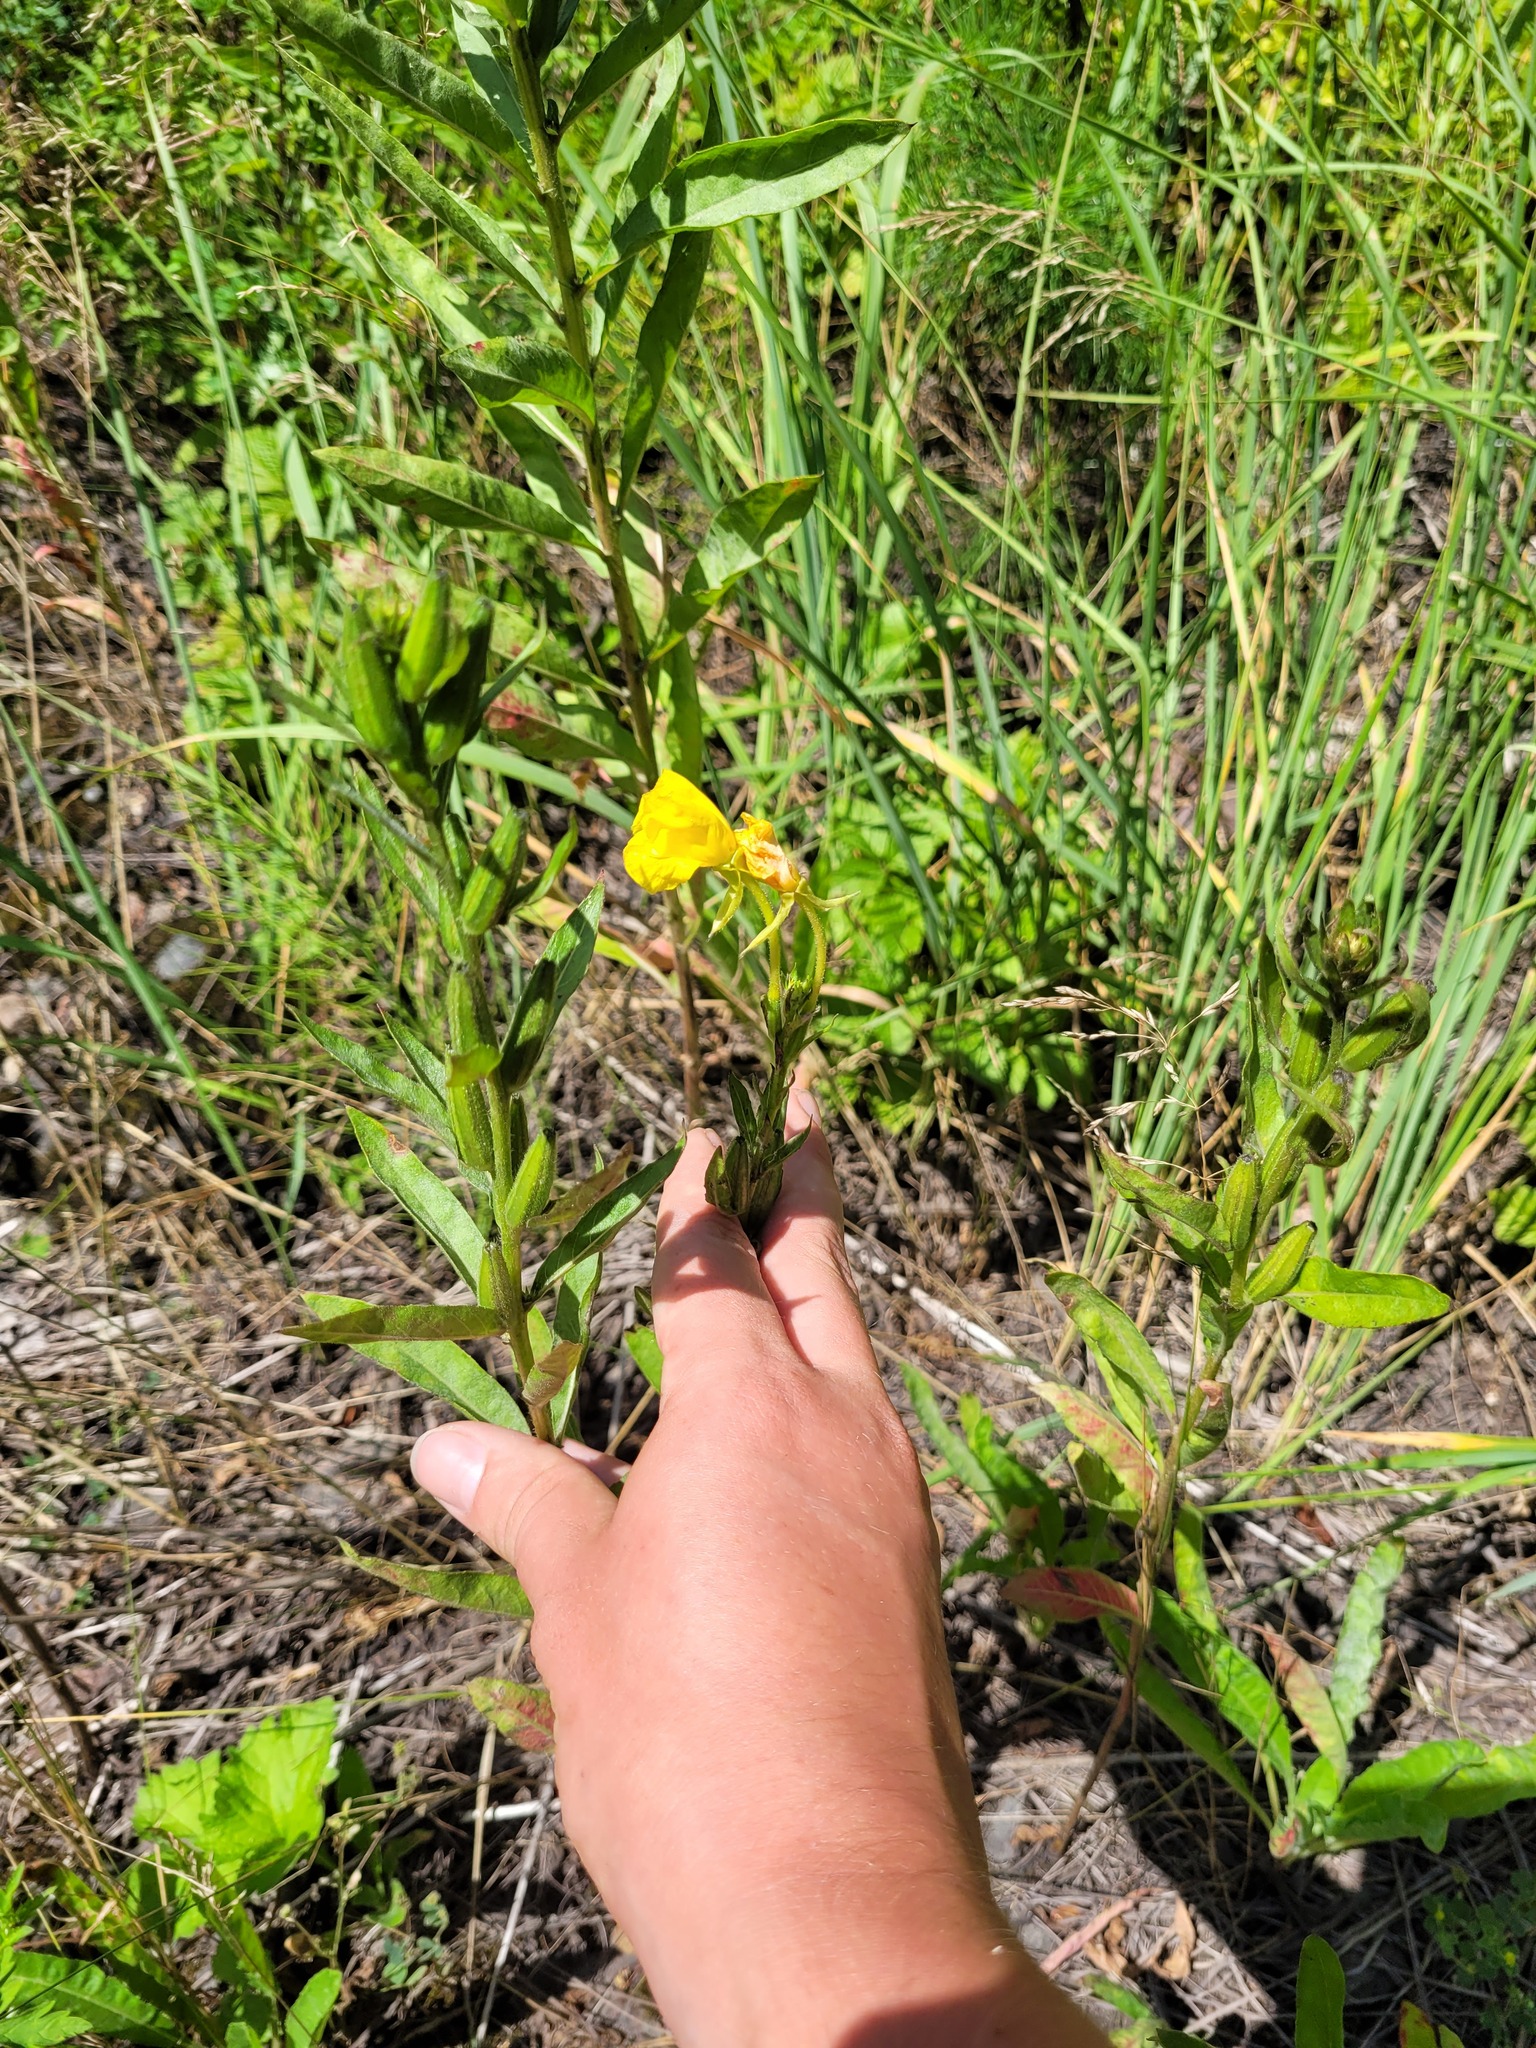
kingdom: Plantae
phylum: Tracheophyta
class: Magnoliopsida
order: Myrtales
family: Onagraceae
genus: Oenothera
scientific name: Oenothera biennis
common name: Common evening-primrose
